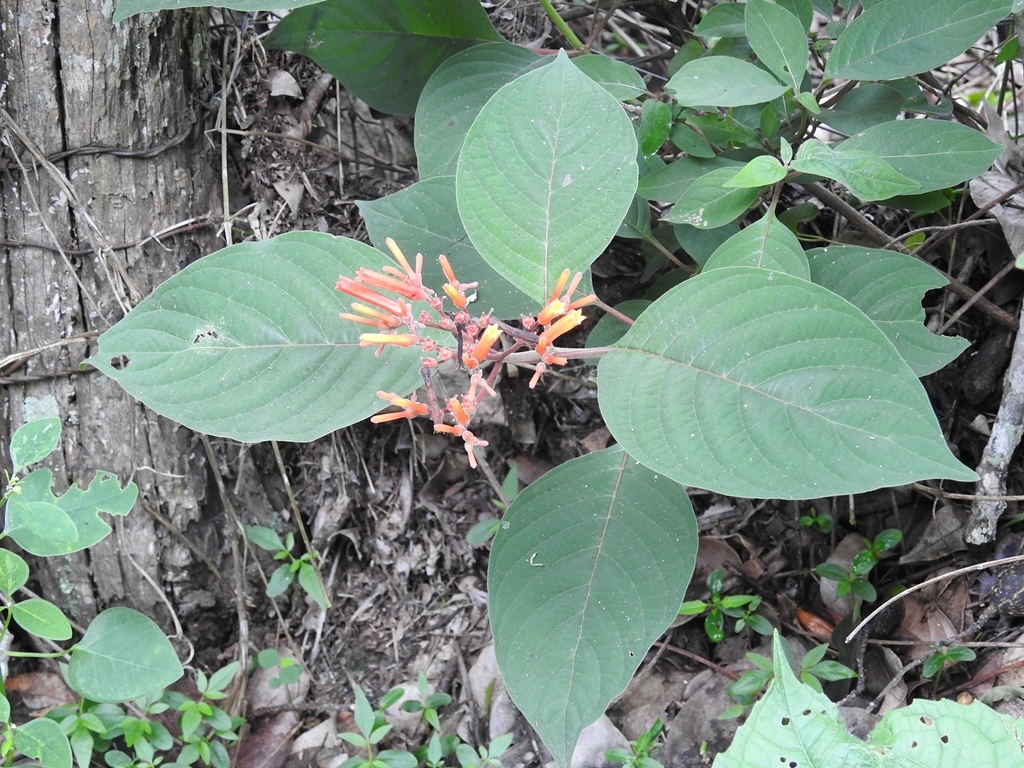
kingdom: Plantae
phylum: Tracheophyta
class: Magnoliopsida
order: Gentianales
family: Rubiaceae
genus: Hamelia
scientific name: Hamelia patens
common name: Redhead
